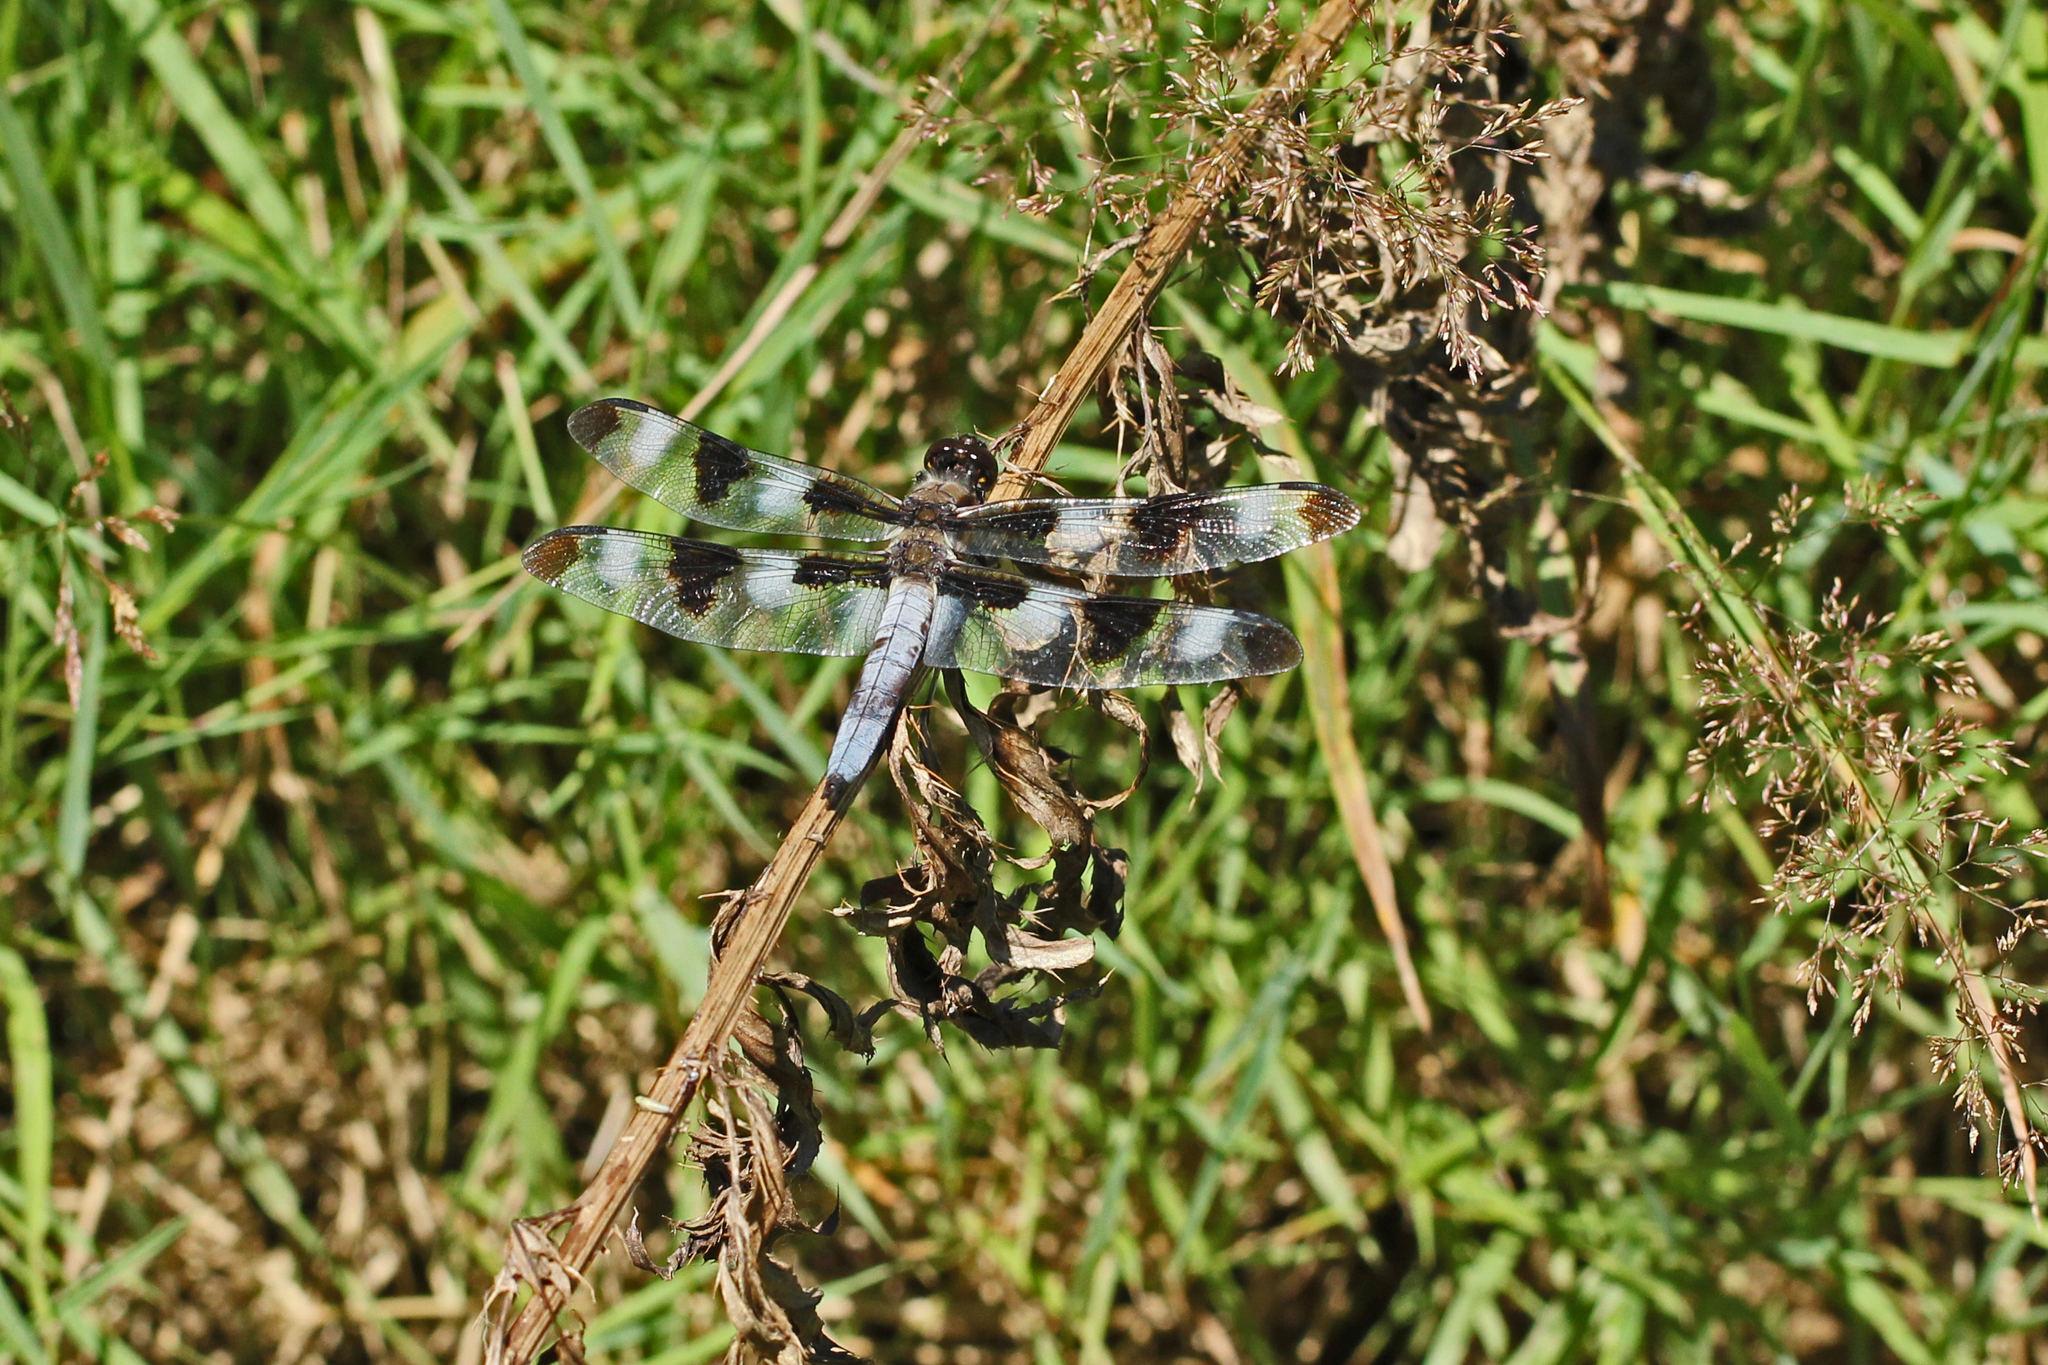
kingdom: Animalia
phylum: Arthropoda
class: Insecta
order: Odonata
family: Libellulidae
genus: Libellula
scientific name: Libellula pulchella
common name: Twelve-spotted skimmer
